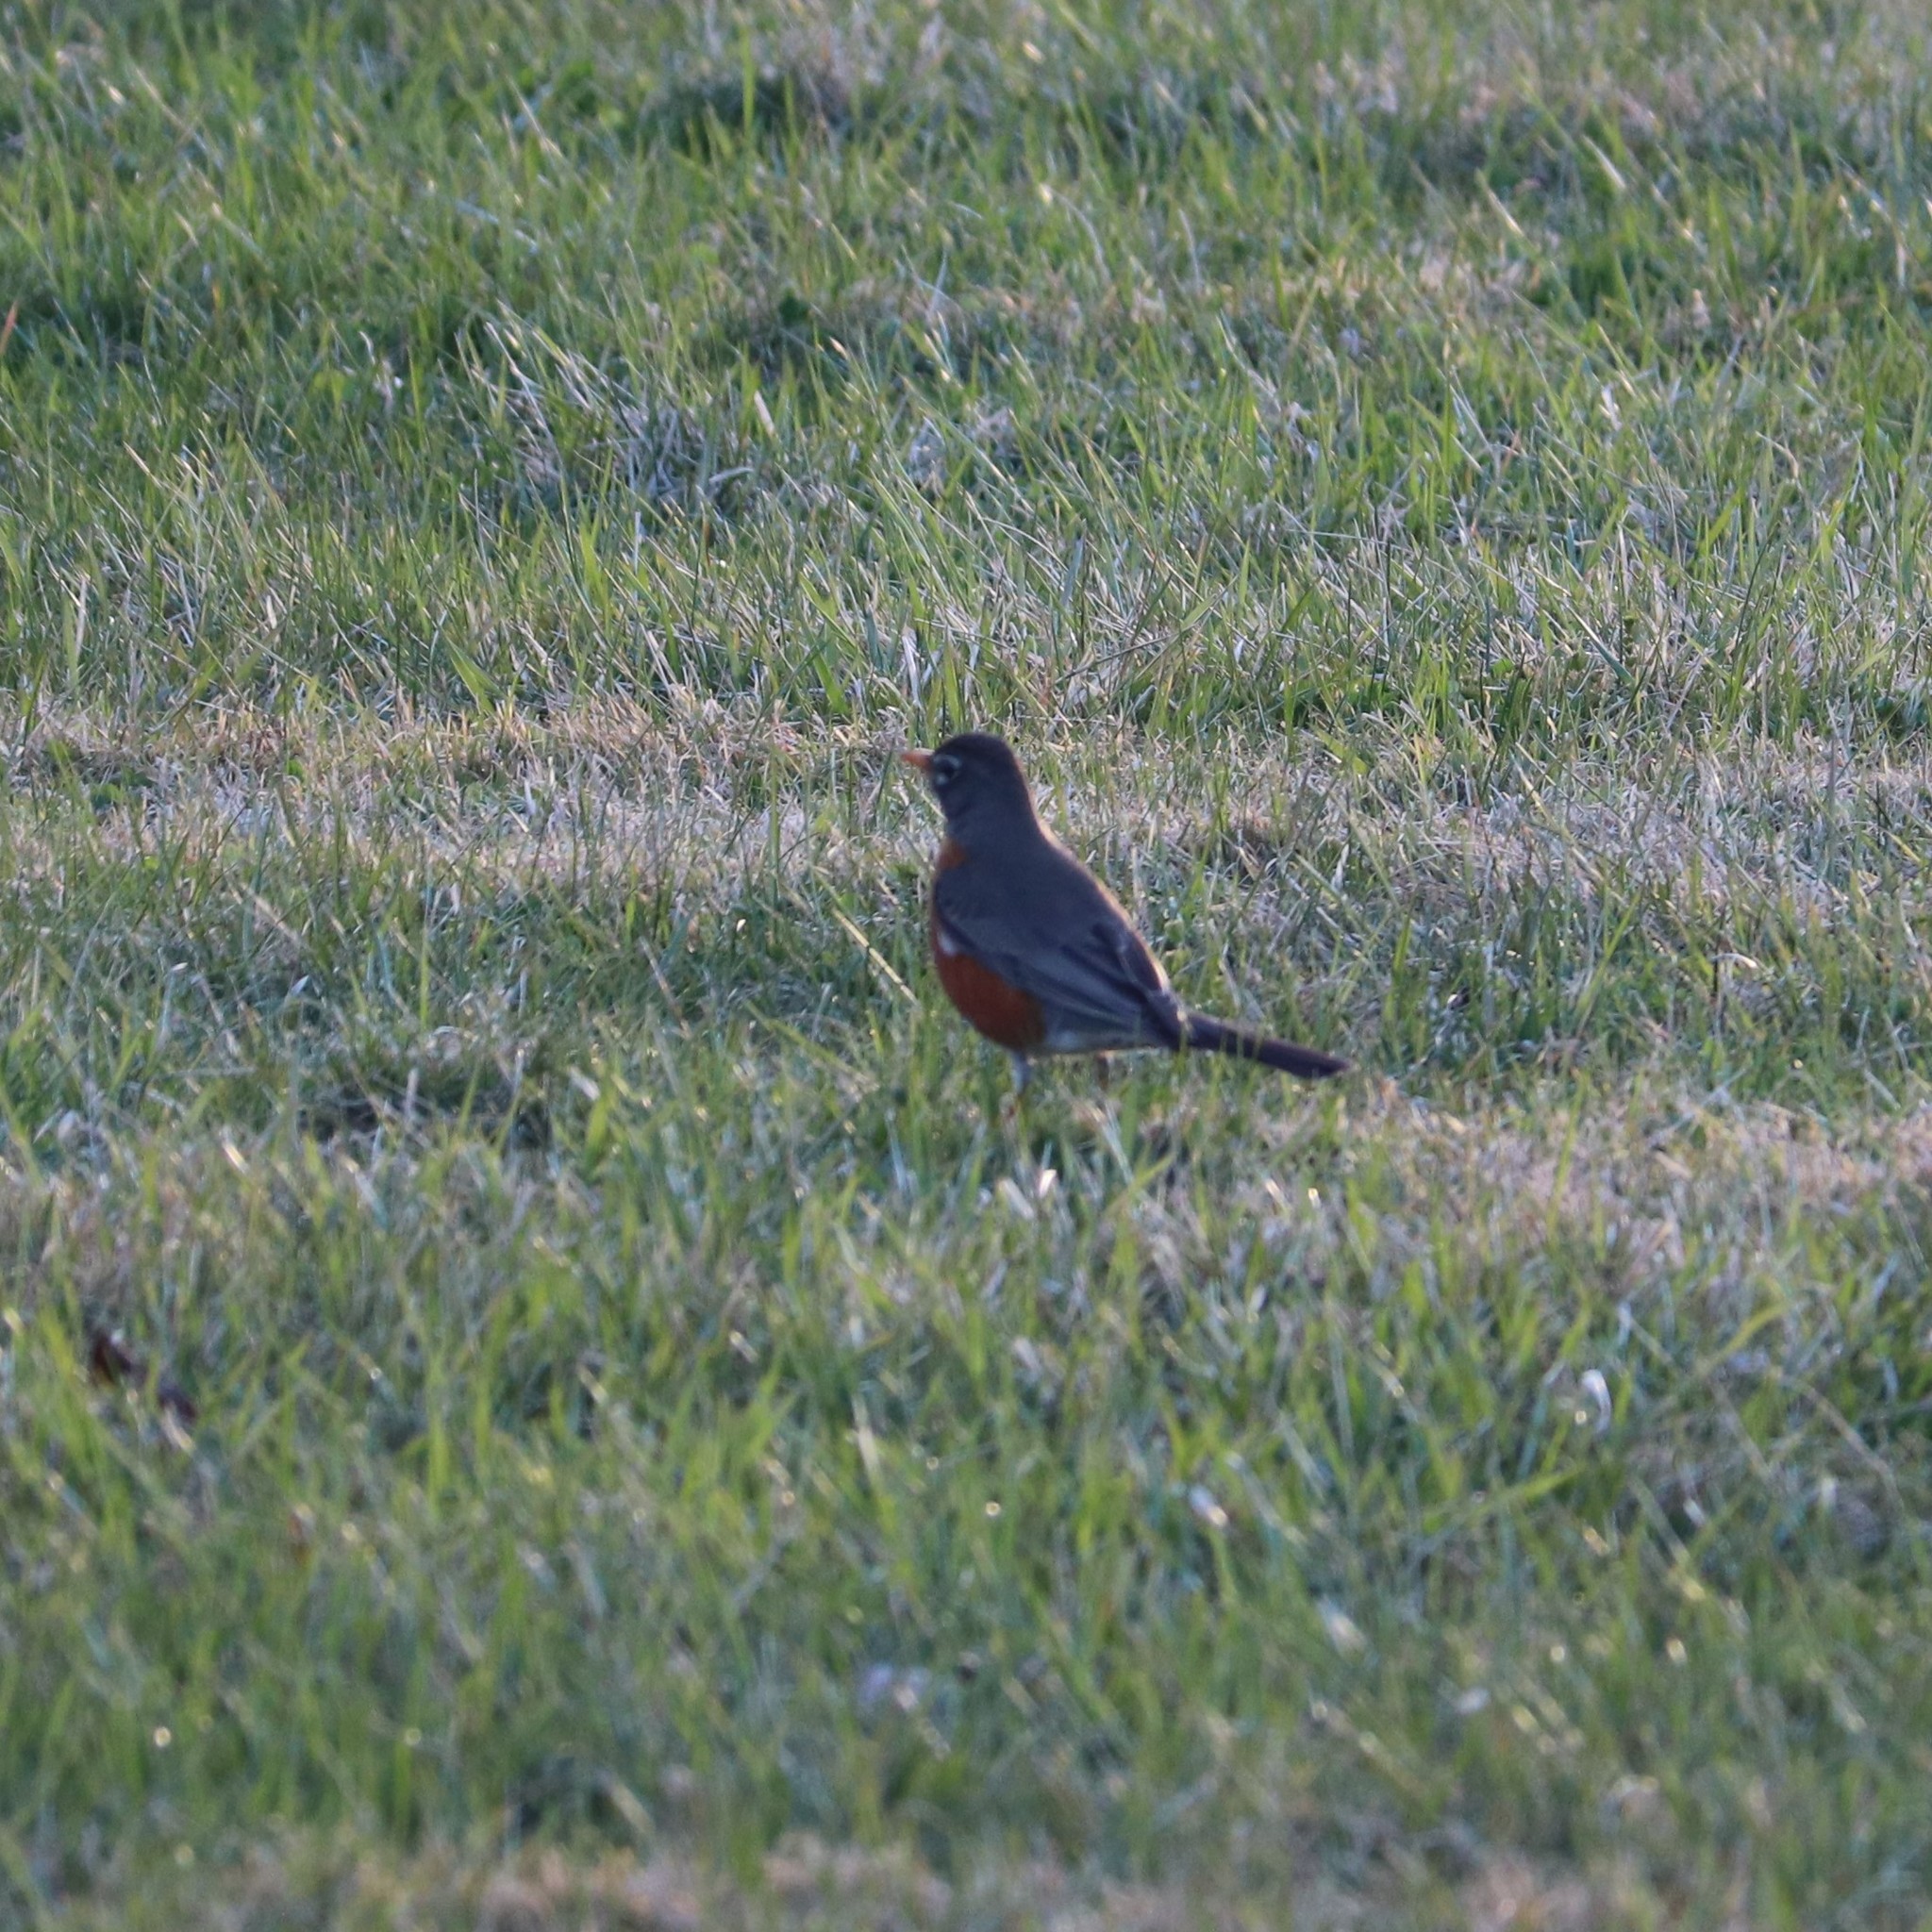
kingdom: Animalia
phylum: Chordata
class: Aves
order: Passeriformes
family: Turdidae
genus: Turdus
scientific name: Turdus migratorius
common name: American robin
